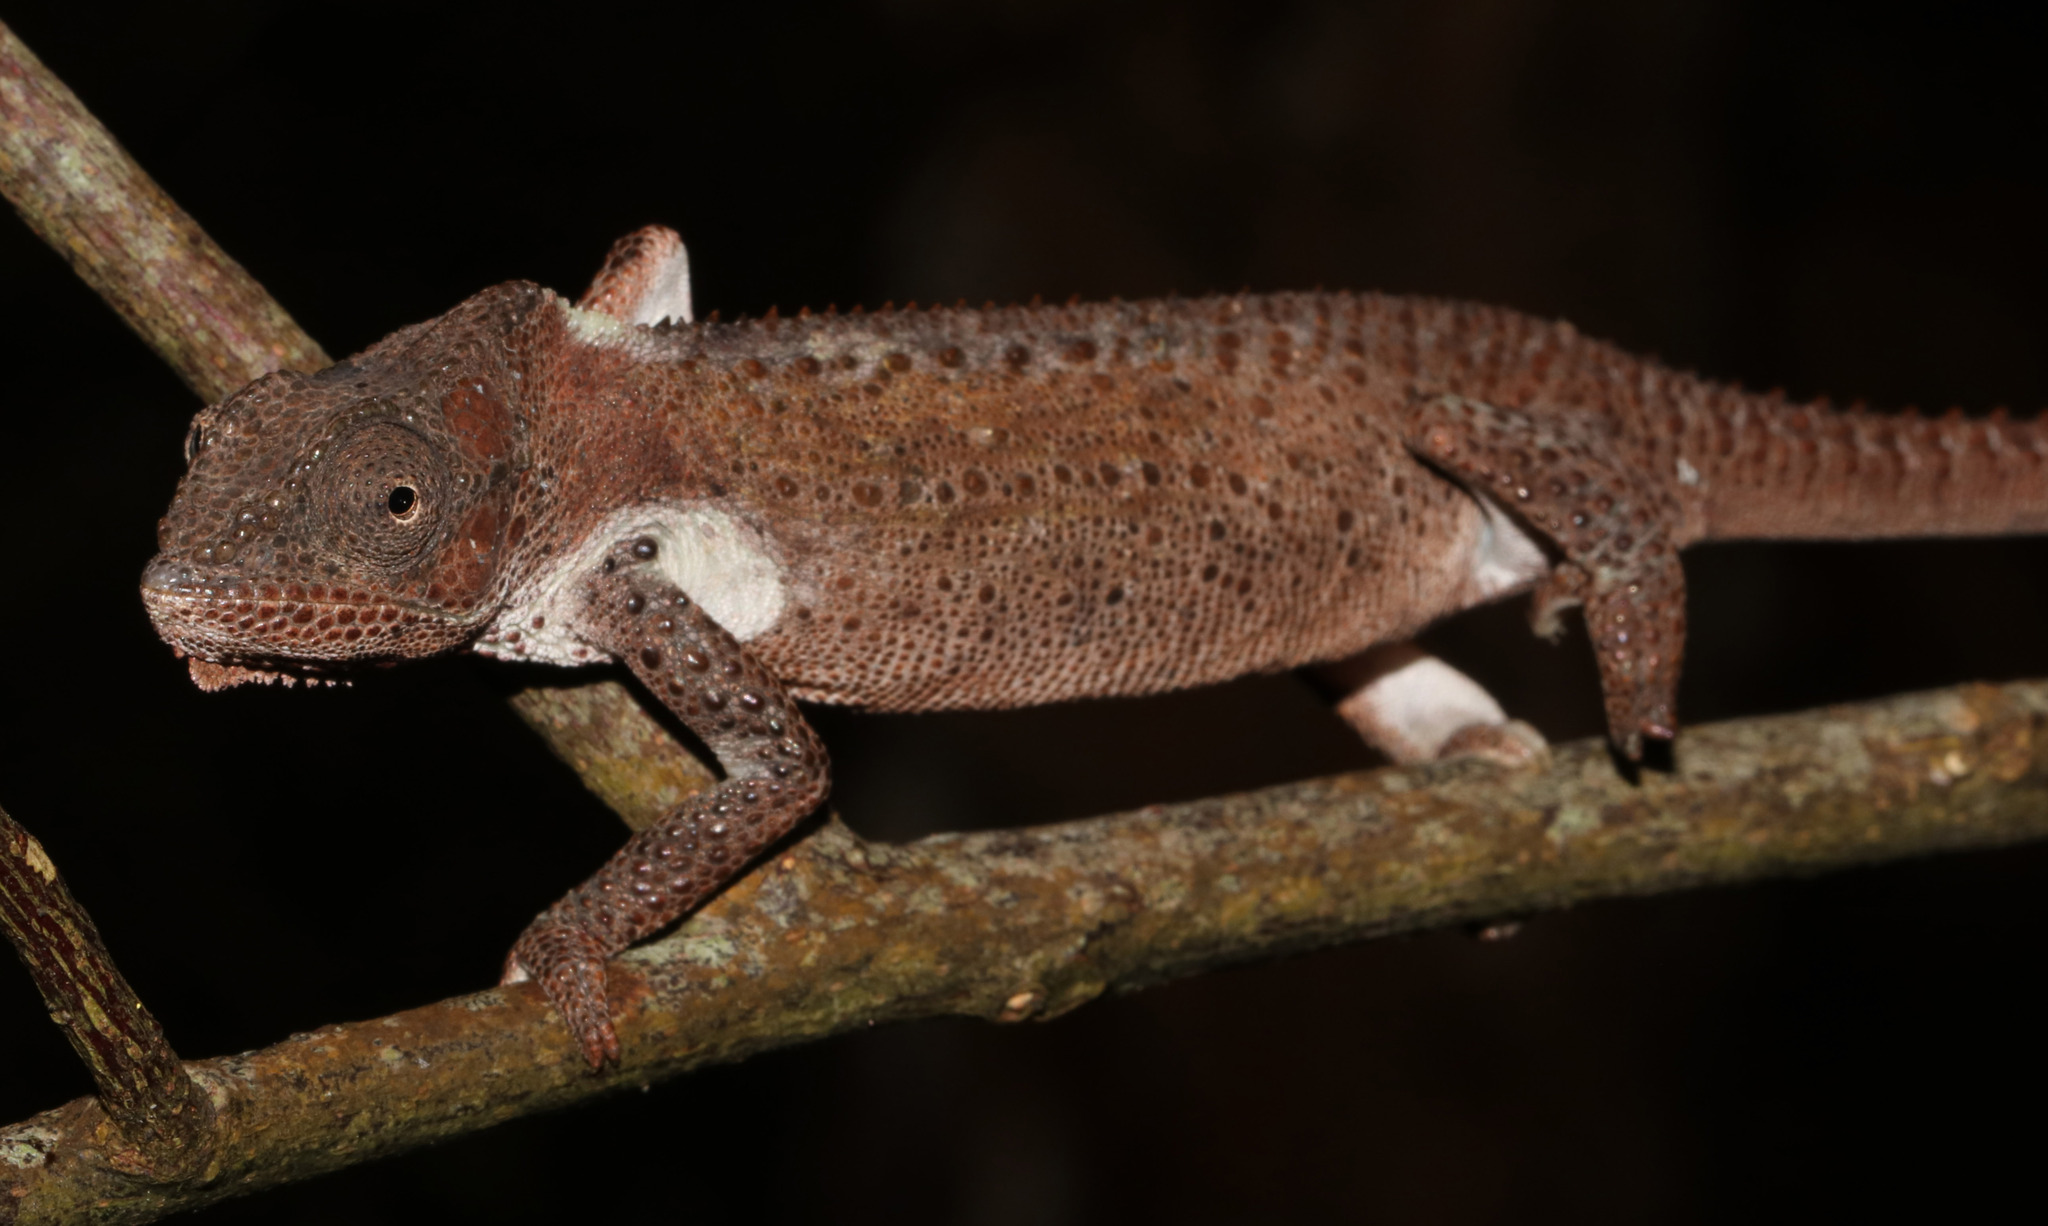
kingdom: Animalia
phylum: Chordata
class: Squamata
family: Chamaeleonidae
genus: Bradypodion
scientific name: Bradypodion damaranum
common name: Knysna dwarf chameleon
